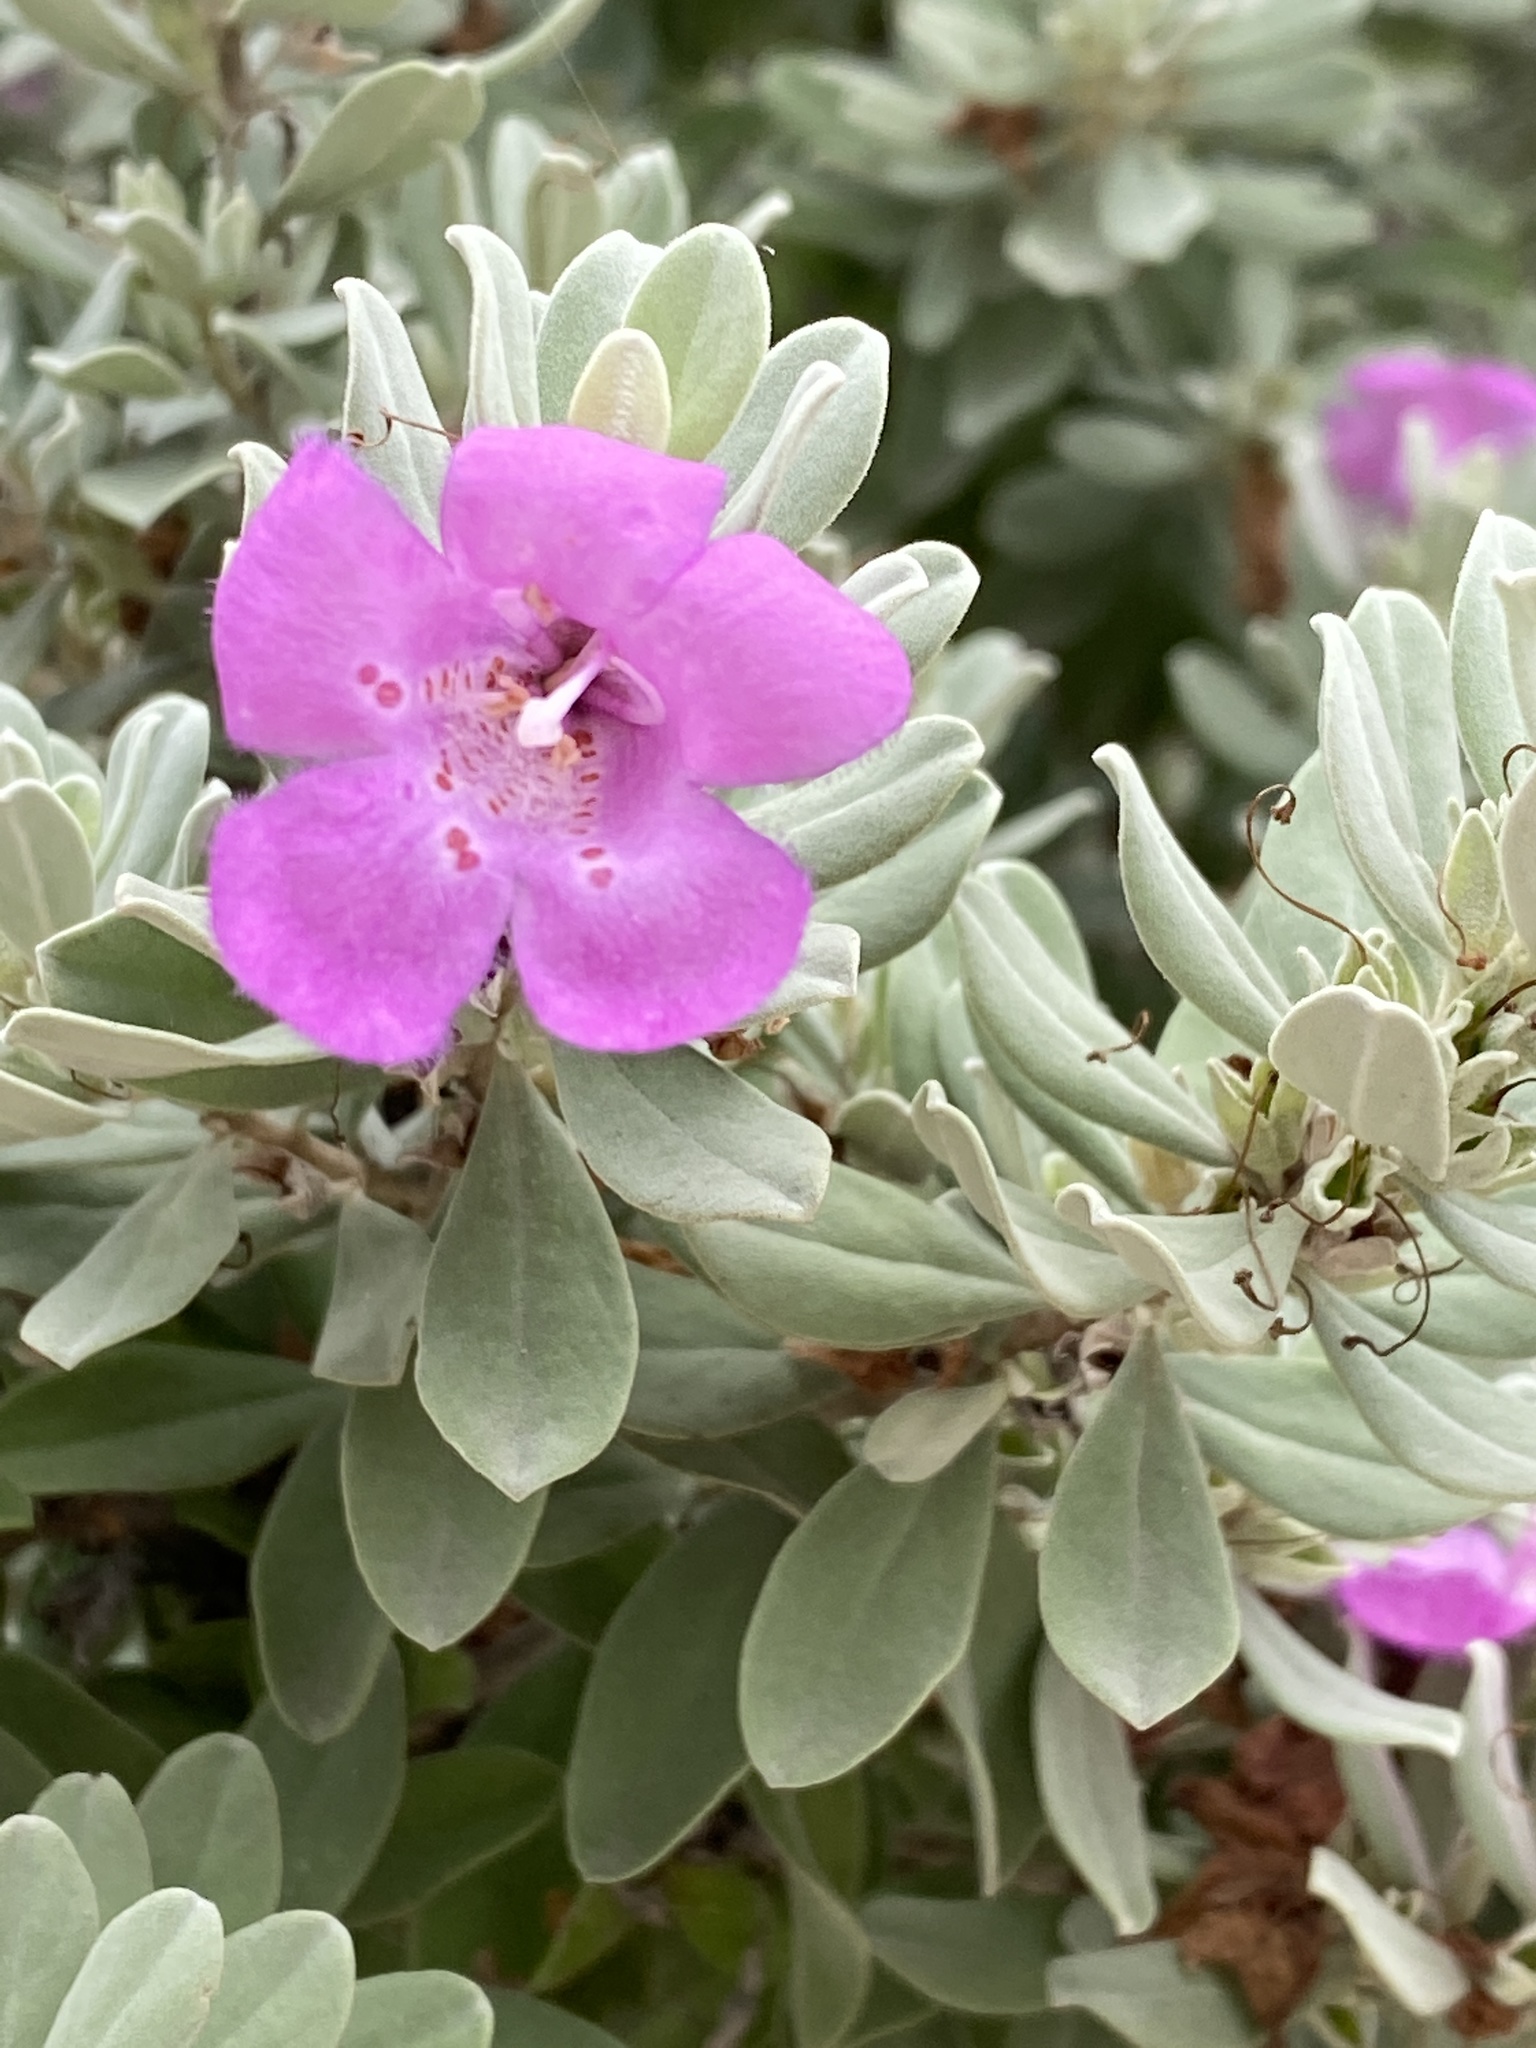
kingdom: Plantae
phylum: Tracheophyta
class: Magnoliopsida
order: Lamiales
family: Scrophulariaceae
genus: Leucophyllum
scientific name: Leucophyllum frutescens
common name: Texas silverleaf
